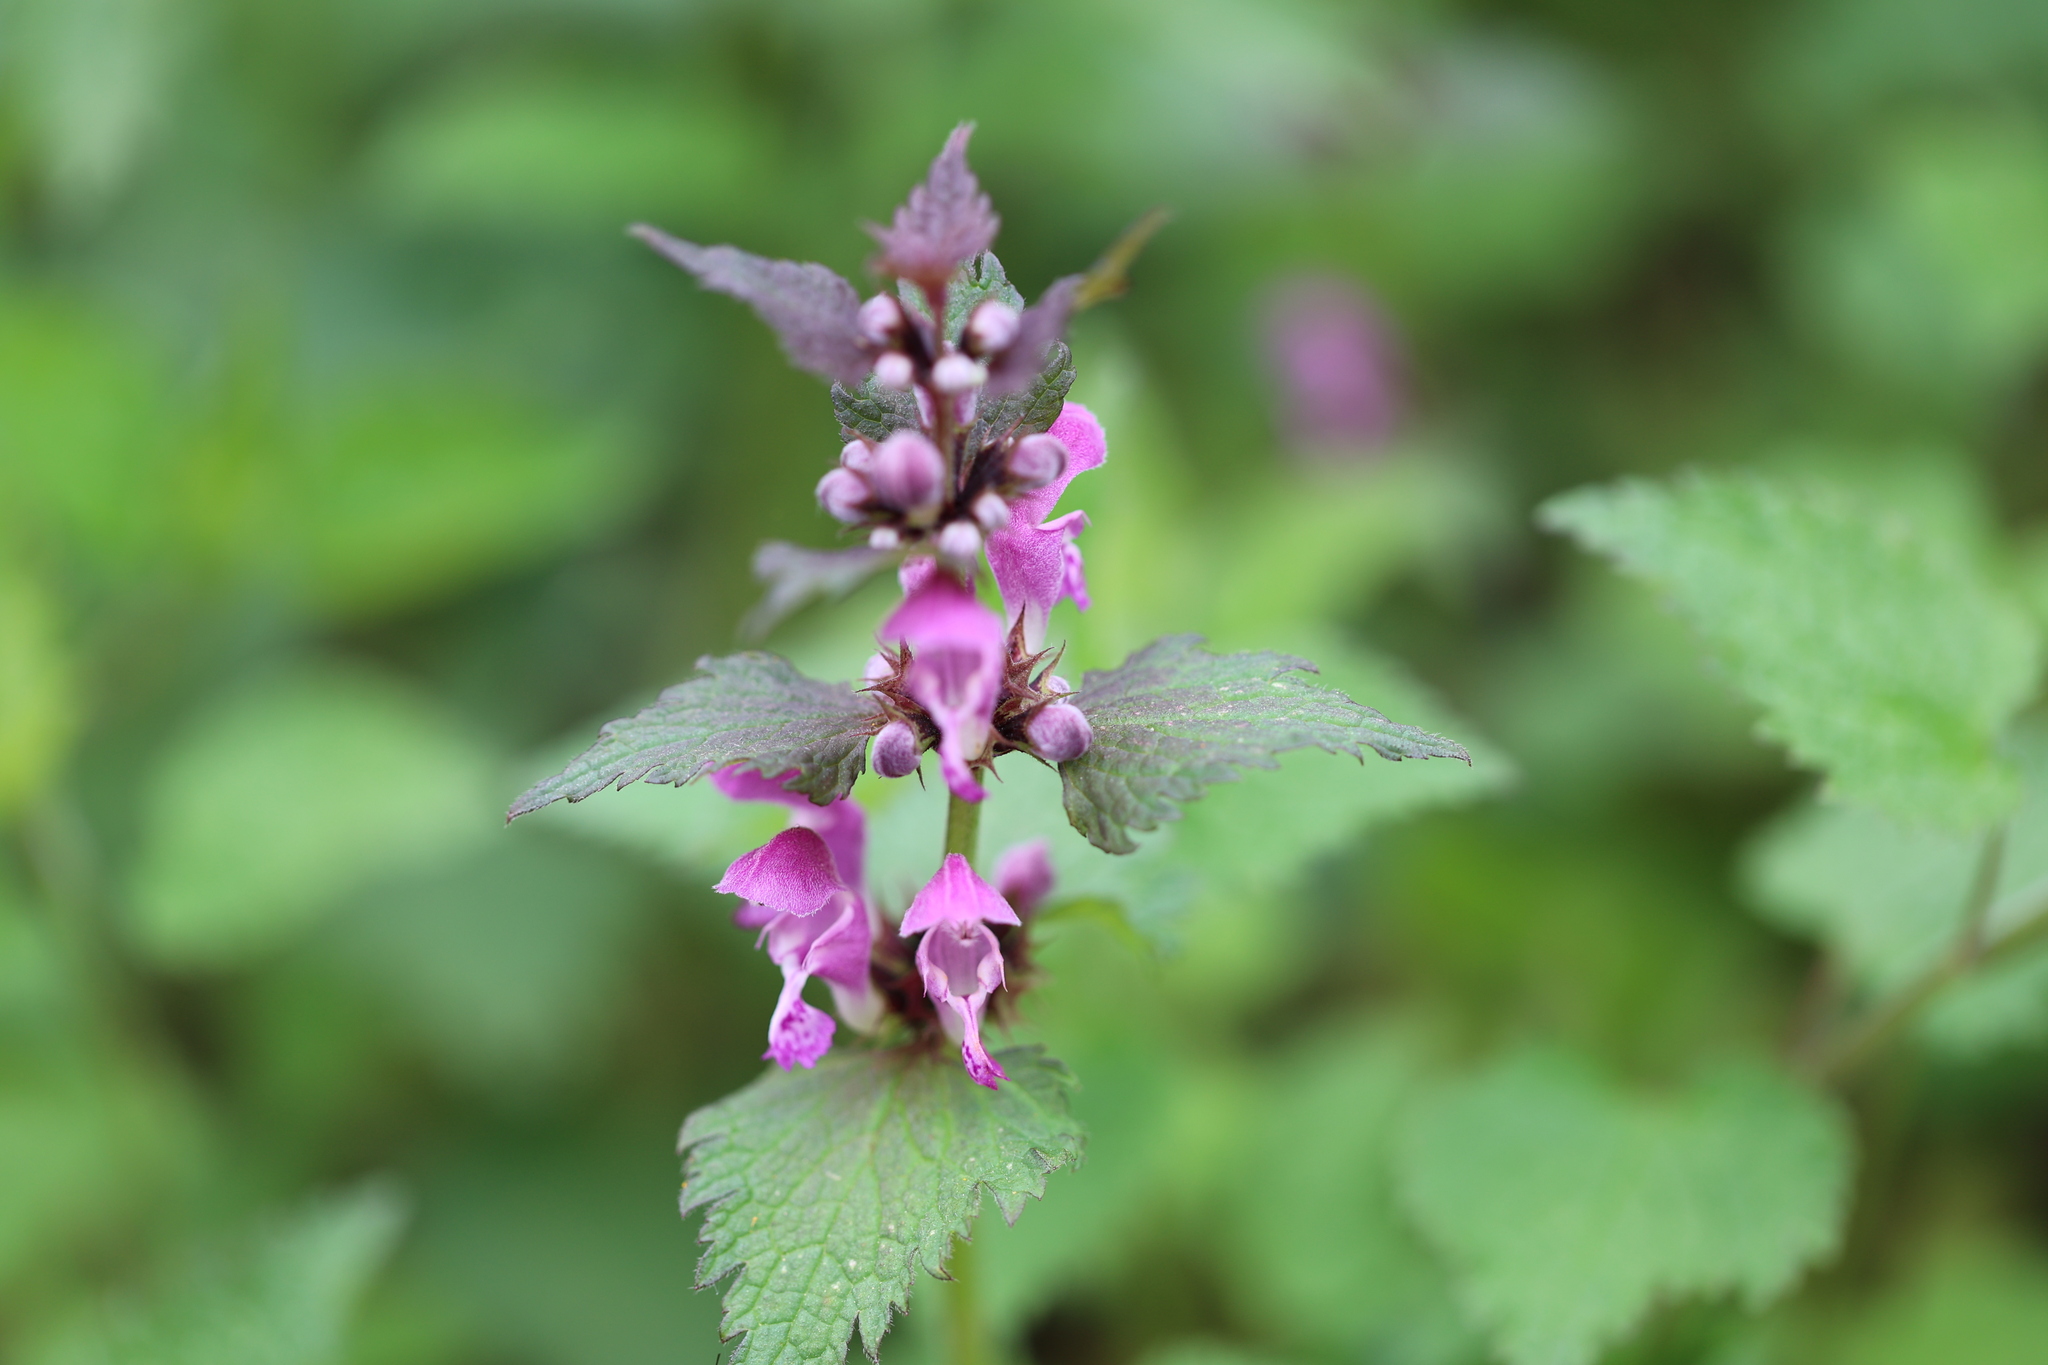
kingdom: Plantae
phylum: Tracheophyta
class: Magnoliopsida
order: Lamiales
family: Lamiaceae
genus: Lamium
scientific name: Lamium maculatum
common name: Spotted dead-nettle
